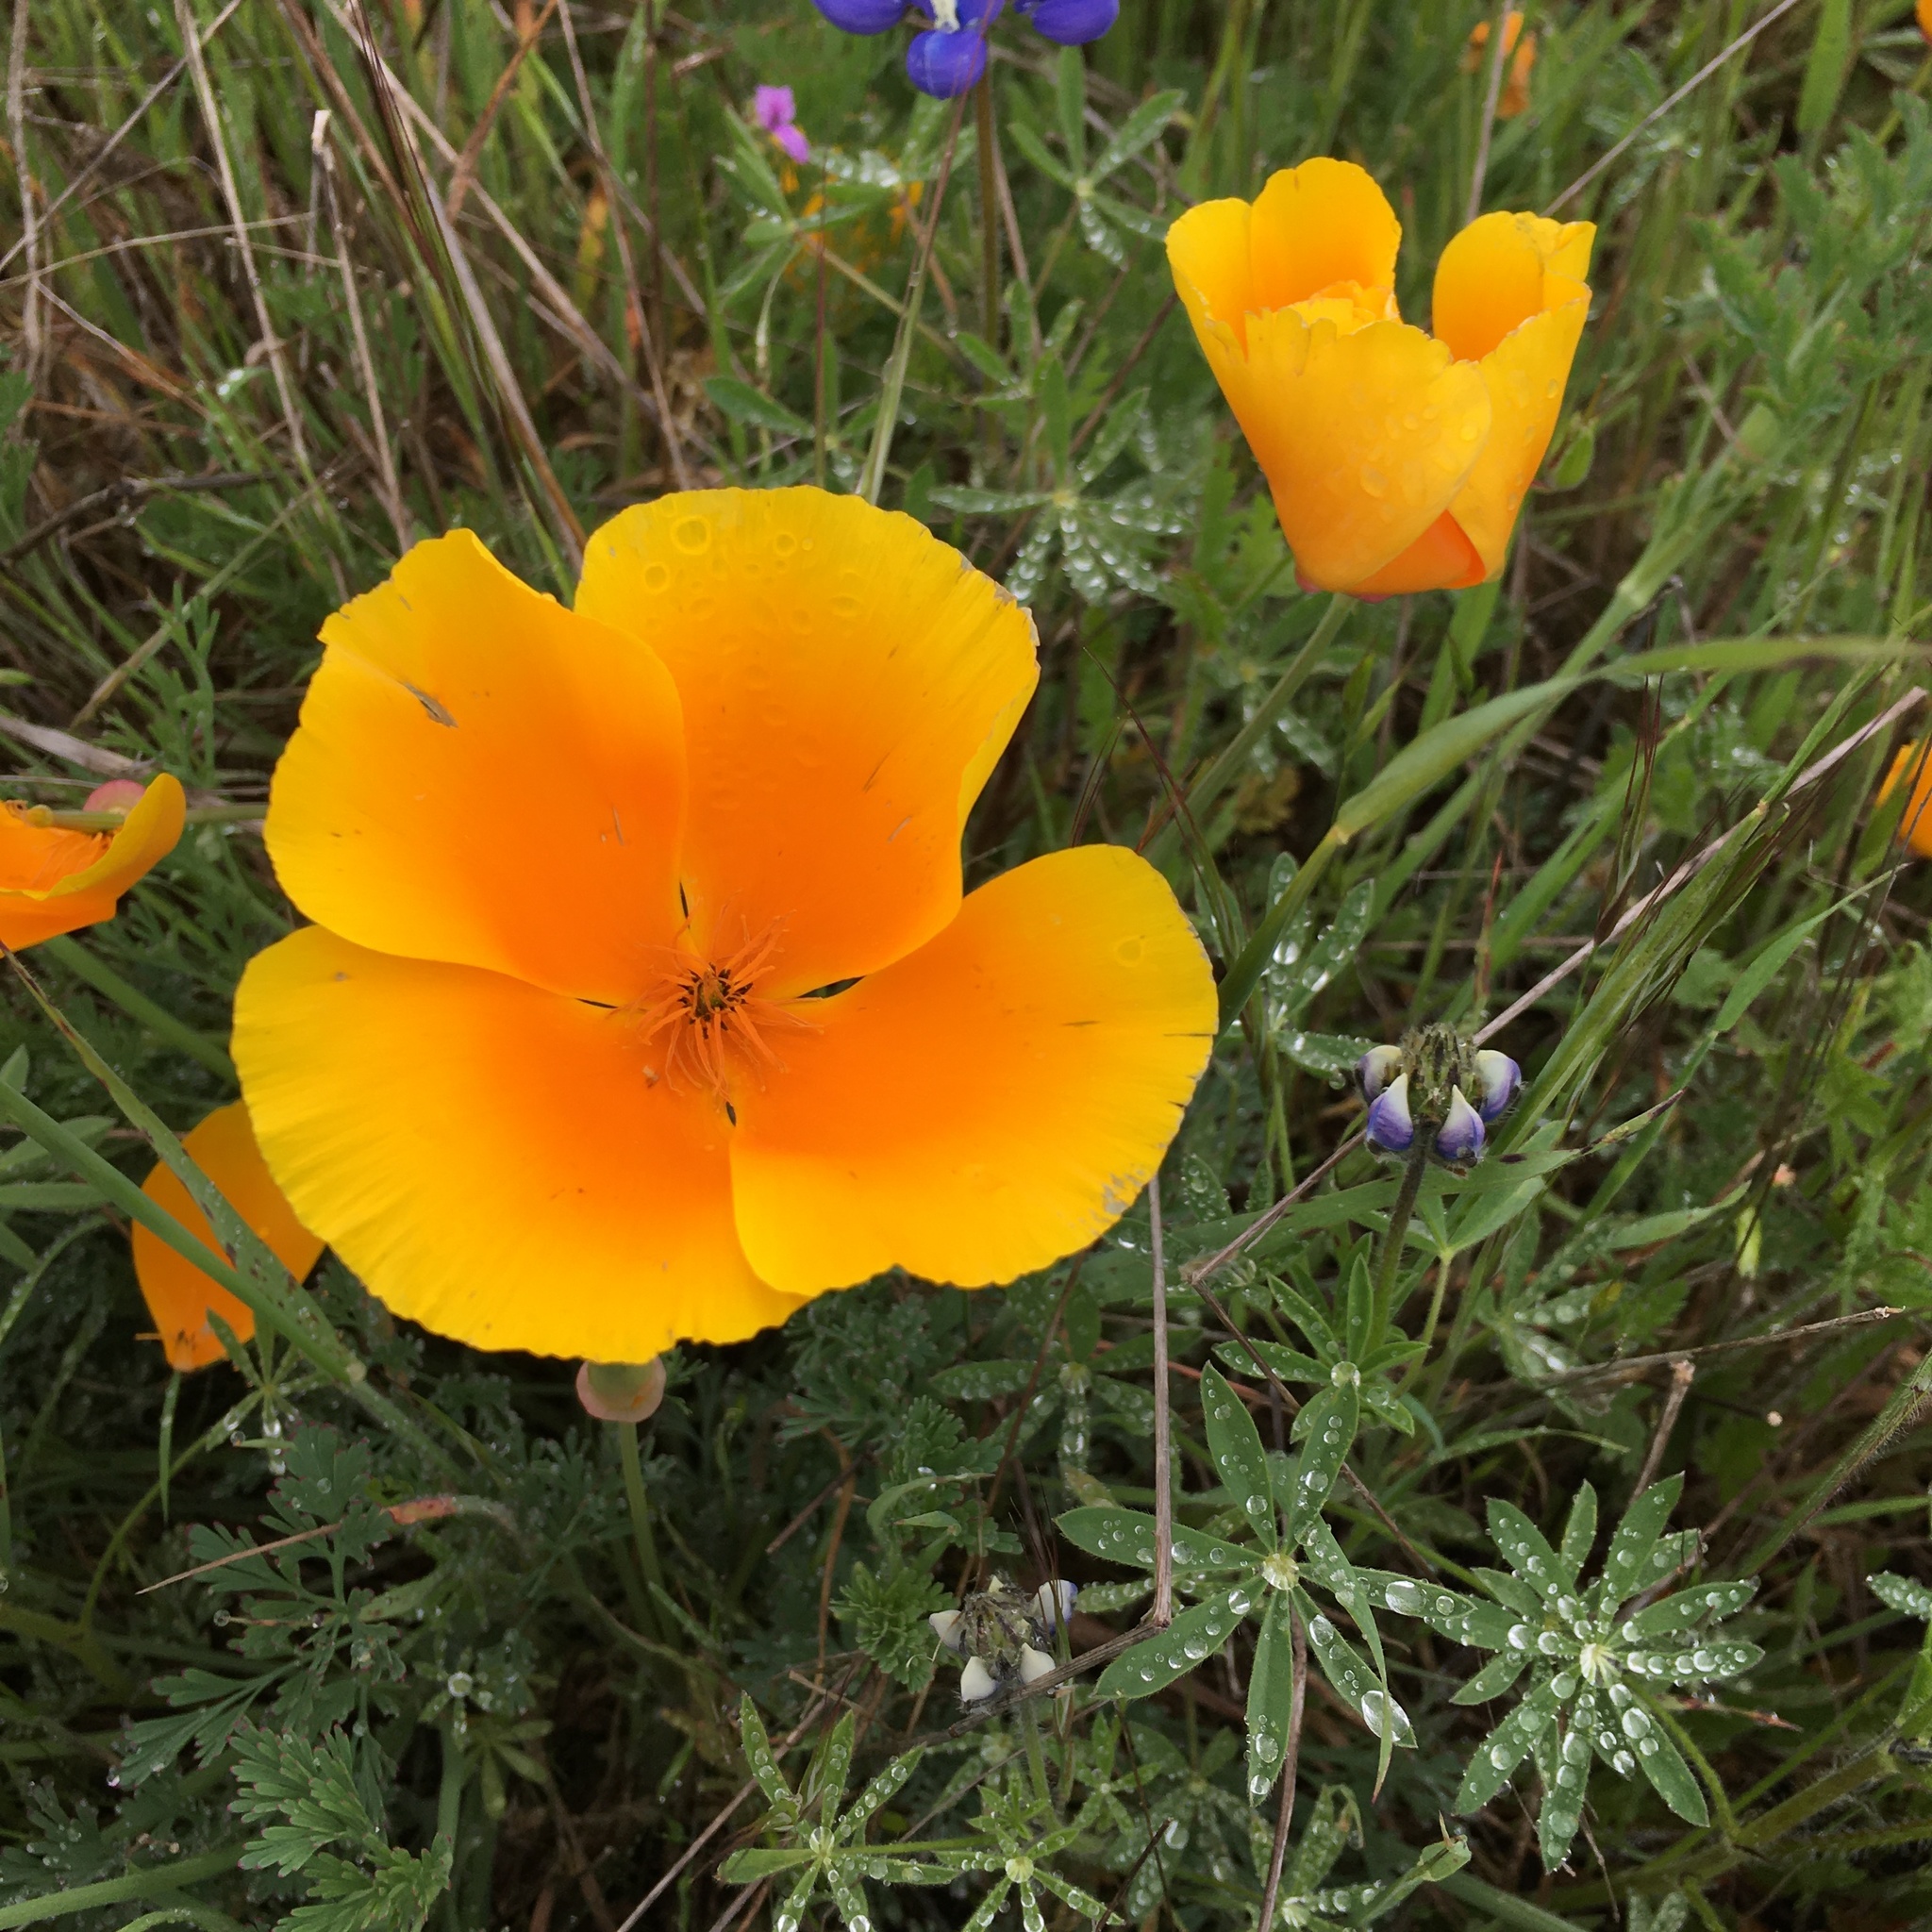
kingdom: Plantae
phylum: Tracheophyta
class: Magnoliopsida
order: Ranunculales
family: Papaveraceae
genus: Eschscholzia
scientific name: Eschscholzia californica
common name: California poppy
